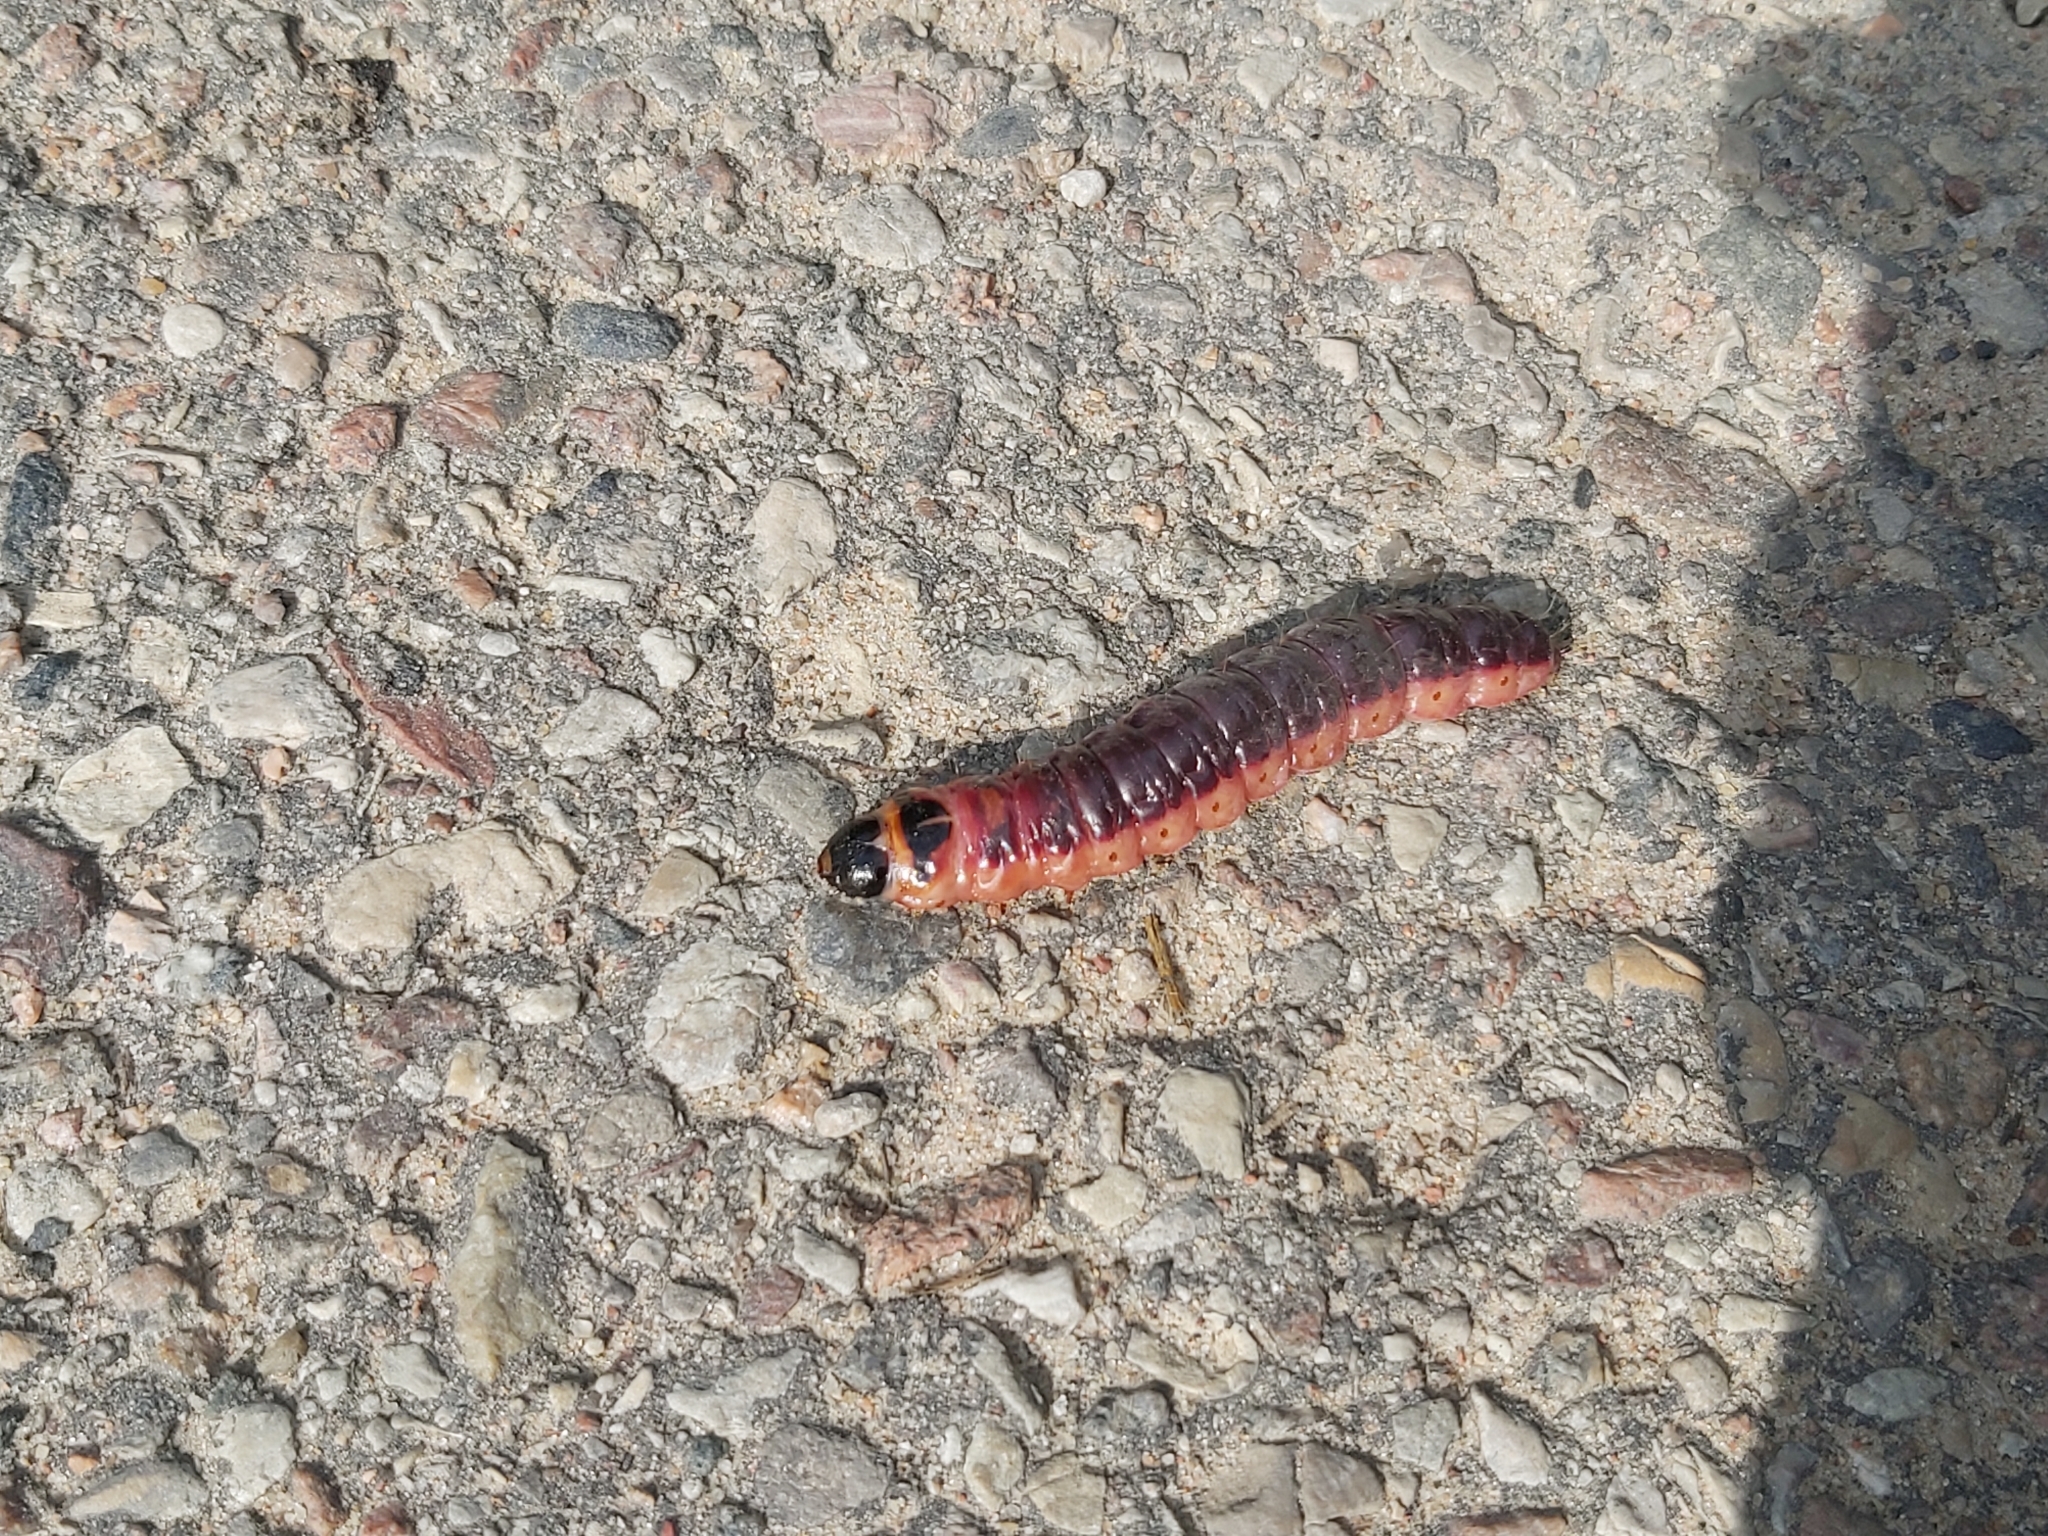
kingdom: Animalia
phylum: Arthropoda
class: Insecta
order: Lepidoptera
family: Cossidae
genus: Cossus
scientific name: Cossus cossus
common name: Goat moth
